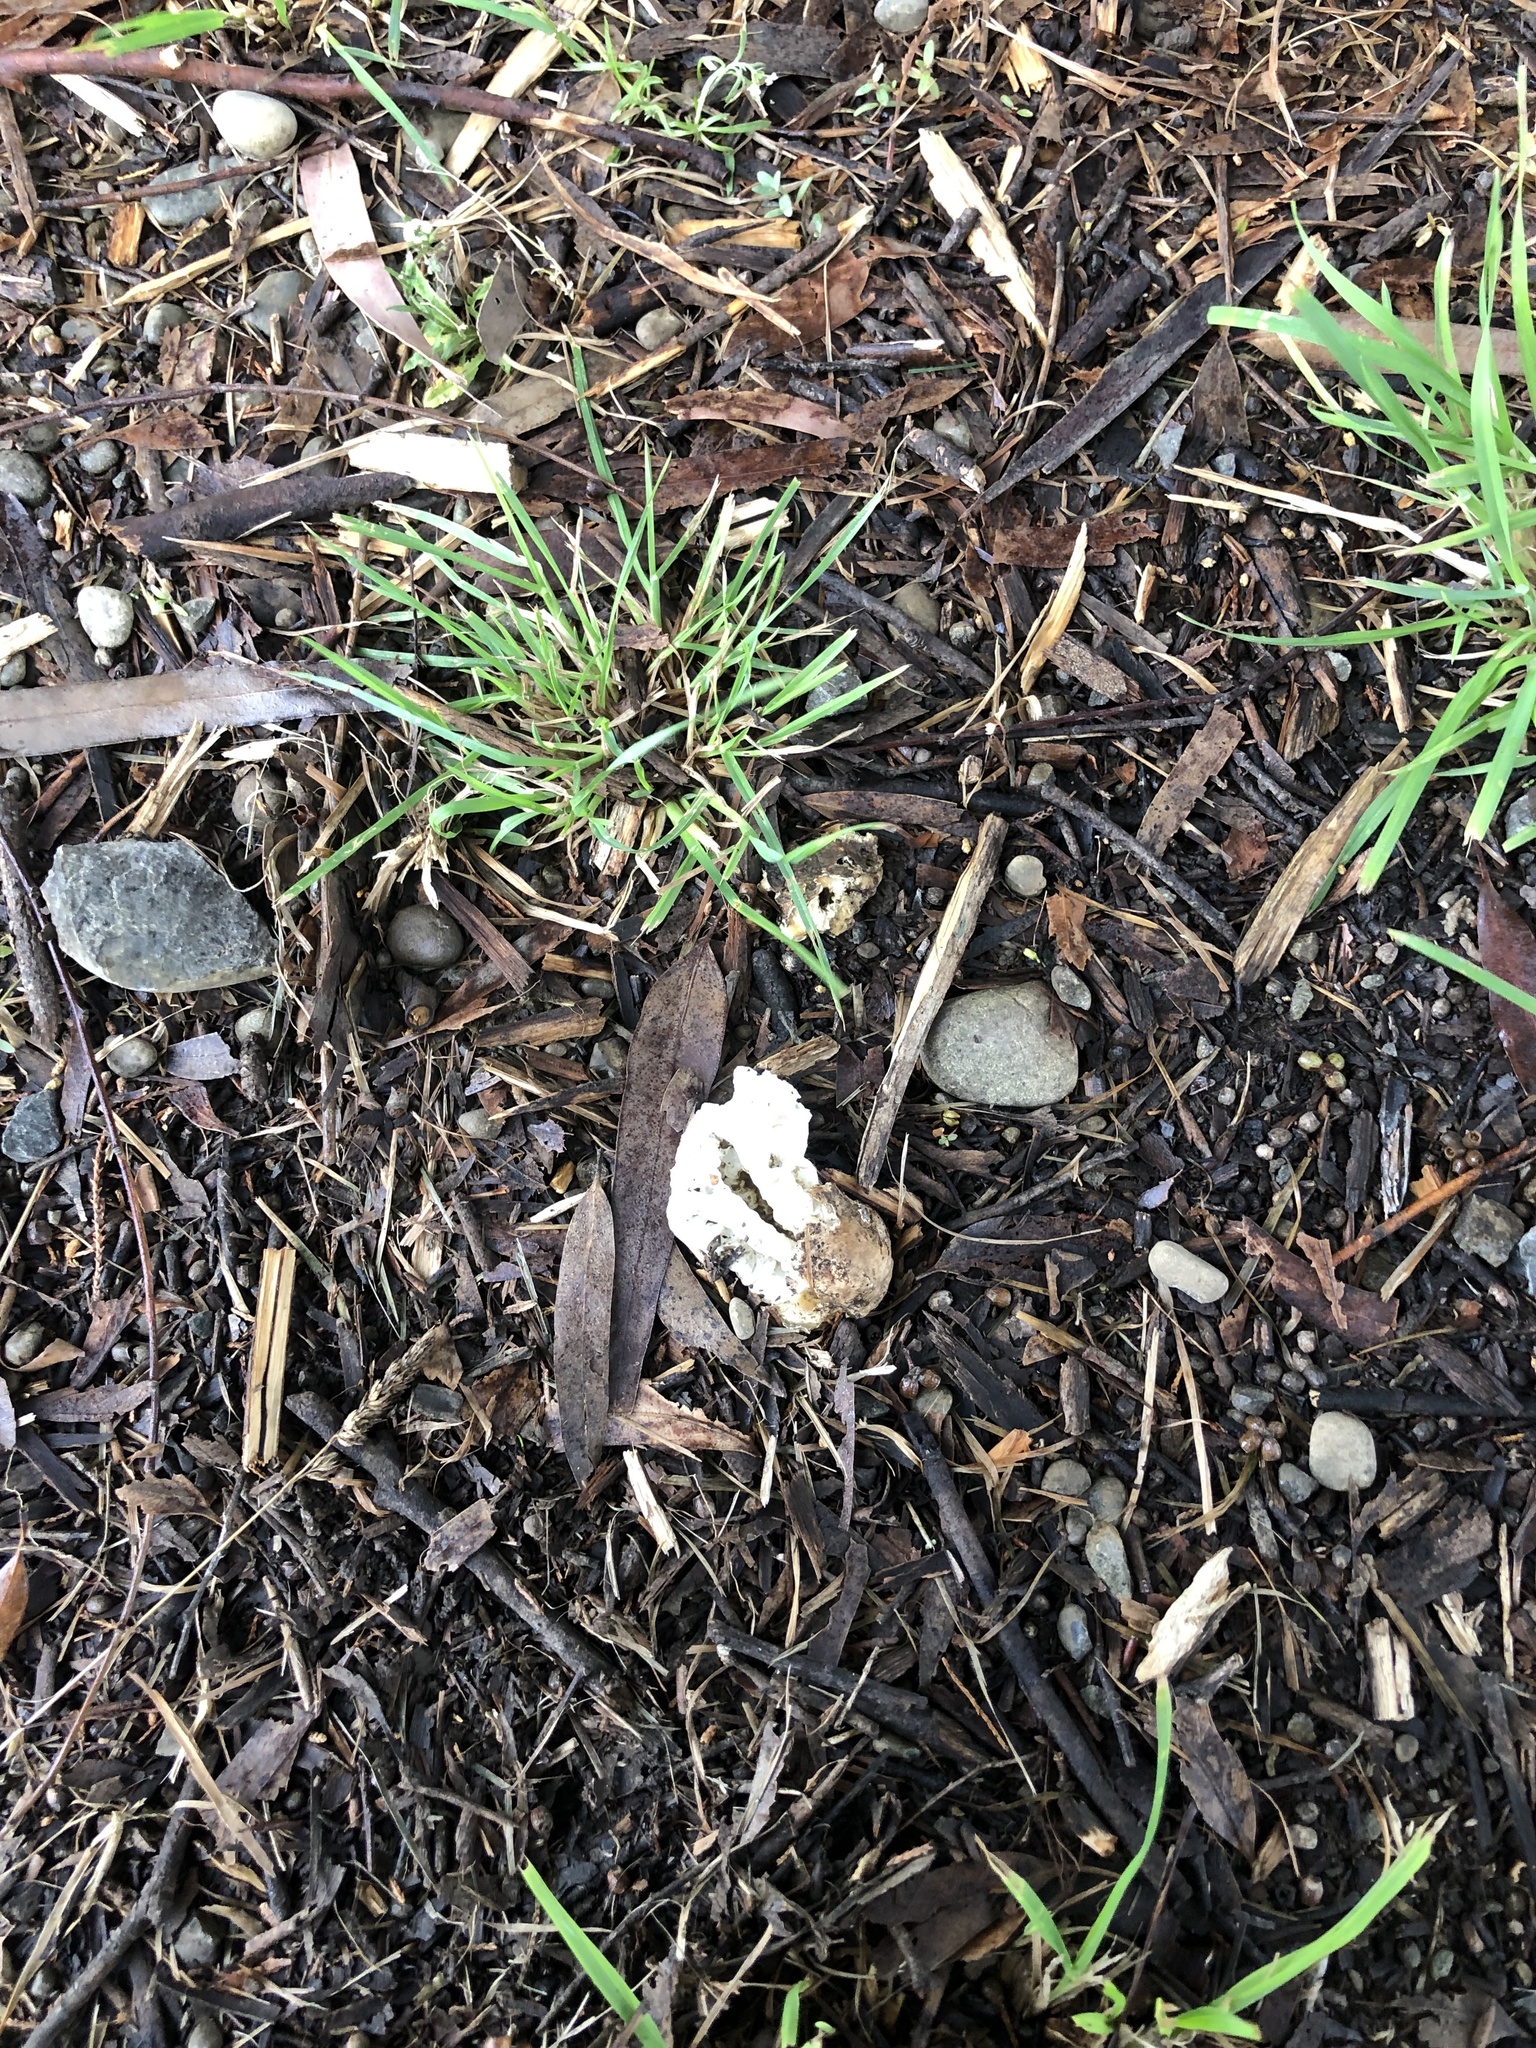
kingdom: Fungi
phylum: Basidiomycota
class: Agaricomycetes
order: Phallales
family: Phallaceae
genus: Ileodictyon
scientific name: Ileodictyon cibarium
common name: Basket fungus
